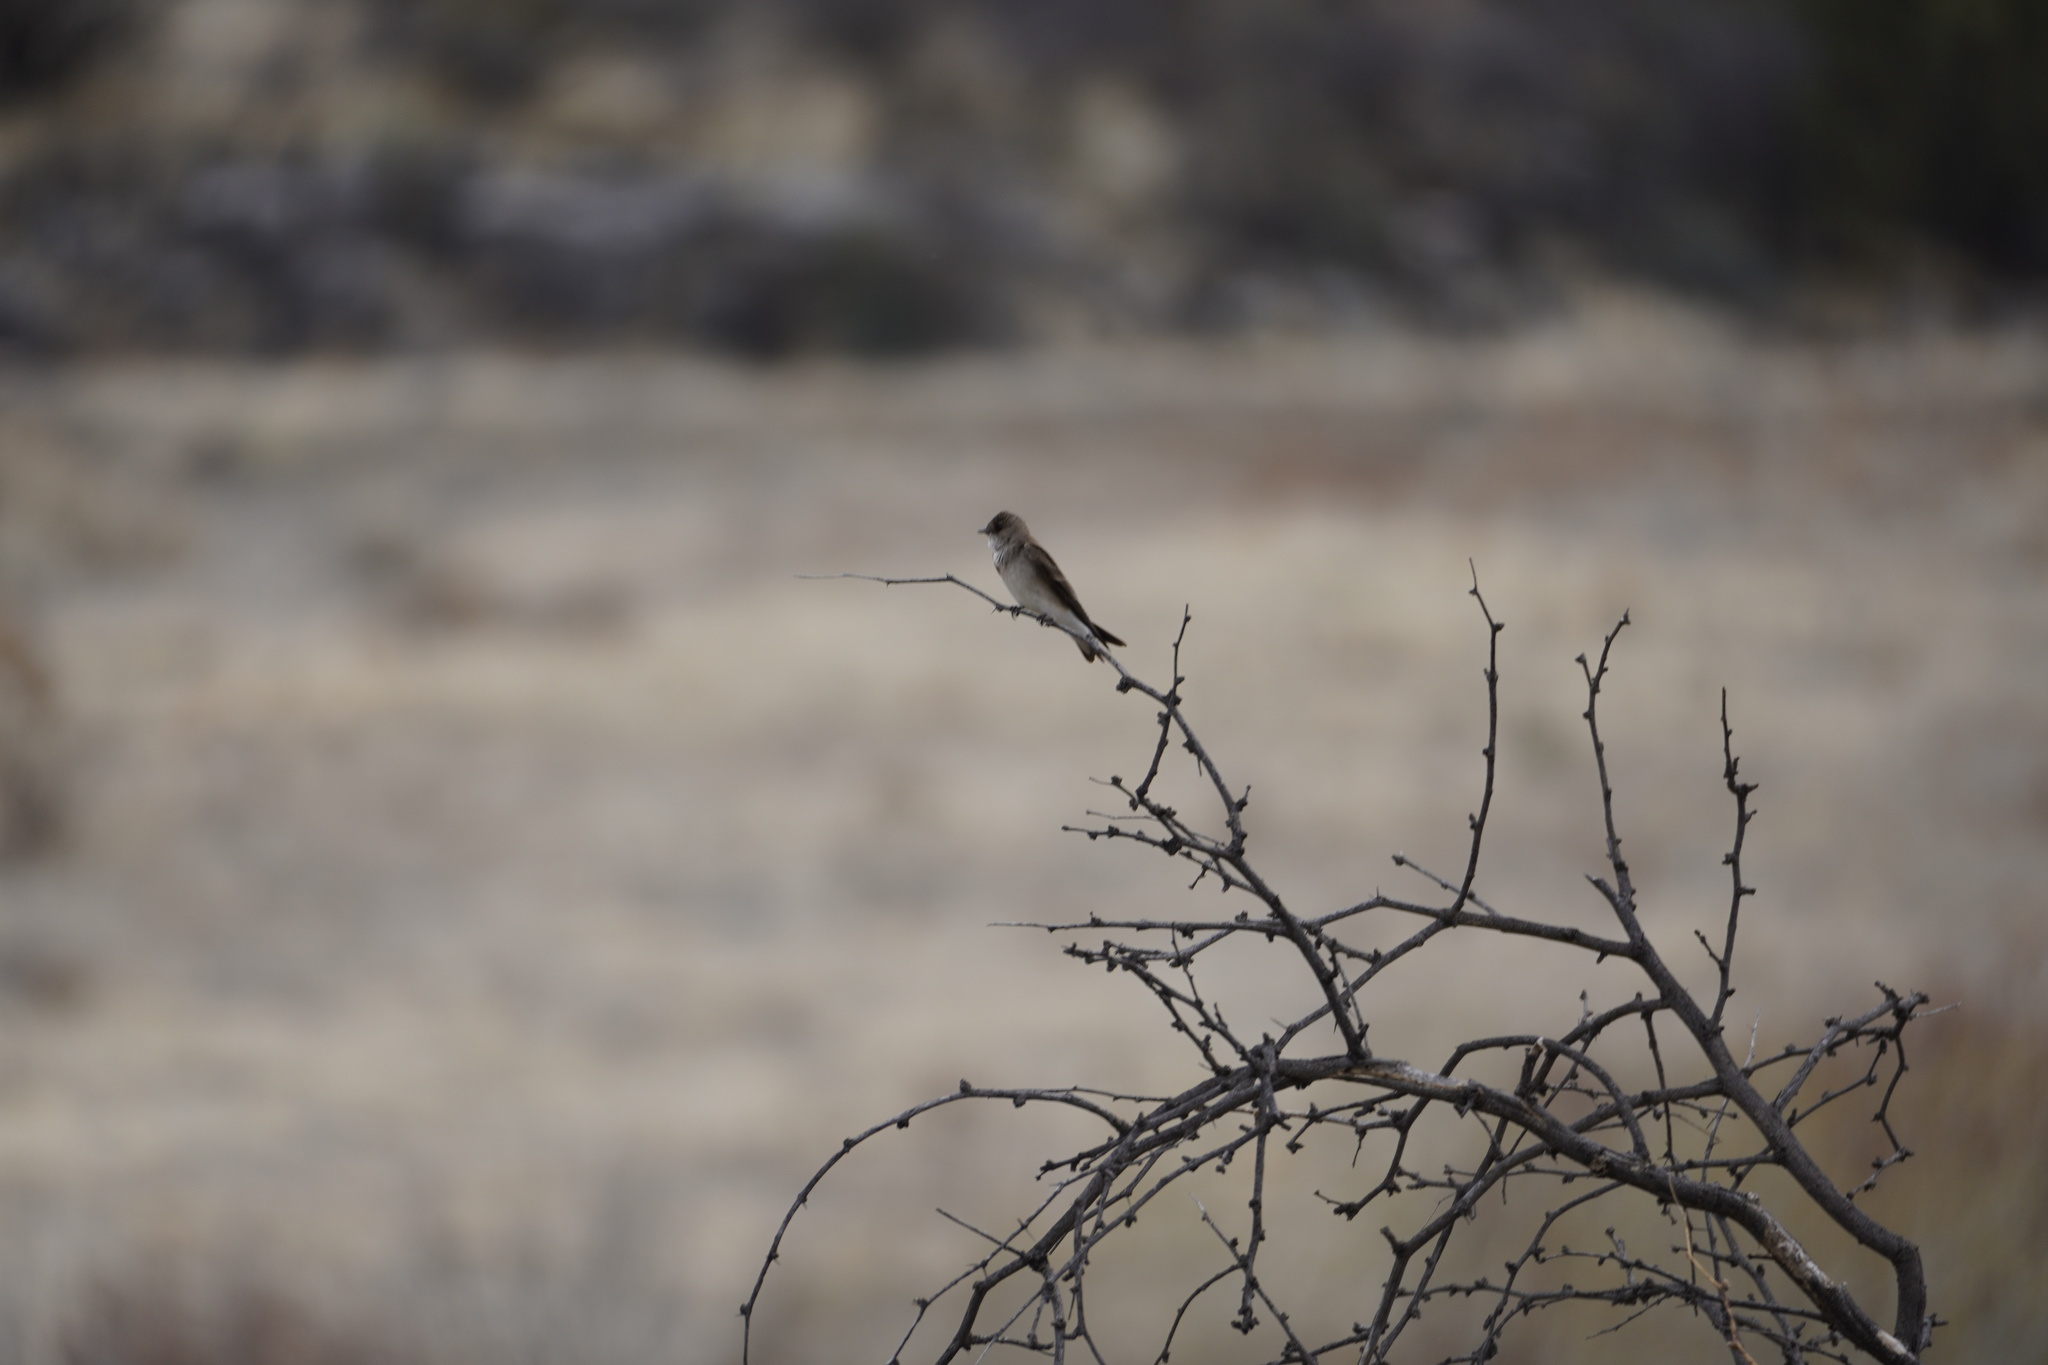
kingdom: Animalia
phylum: Chordata
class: Aves
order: Passeriformes
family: Hirundinidae
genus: Stelgidopteryx
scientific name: Stelgidopteryx serripennis
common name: Northern rough-winged swallow
